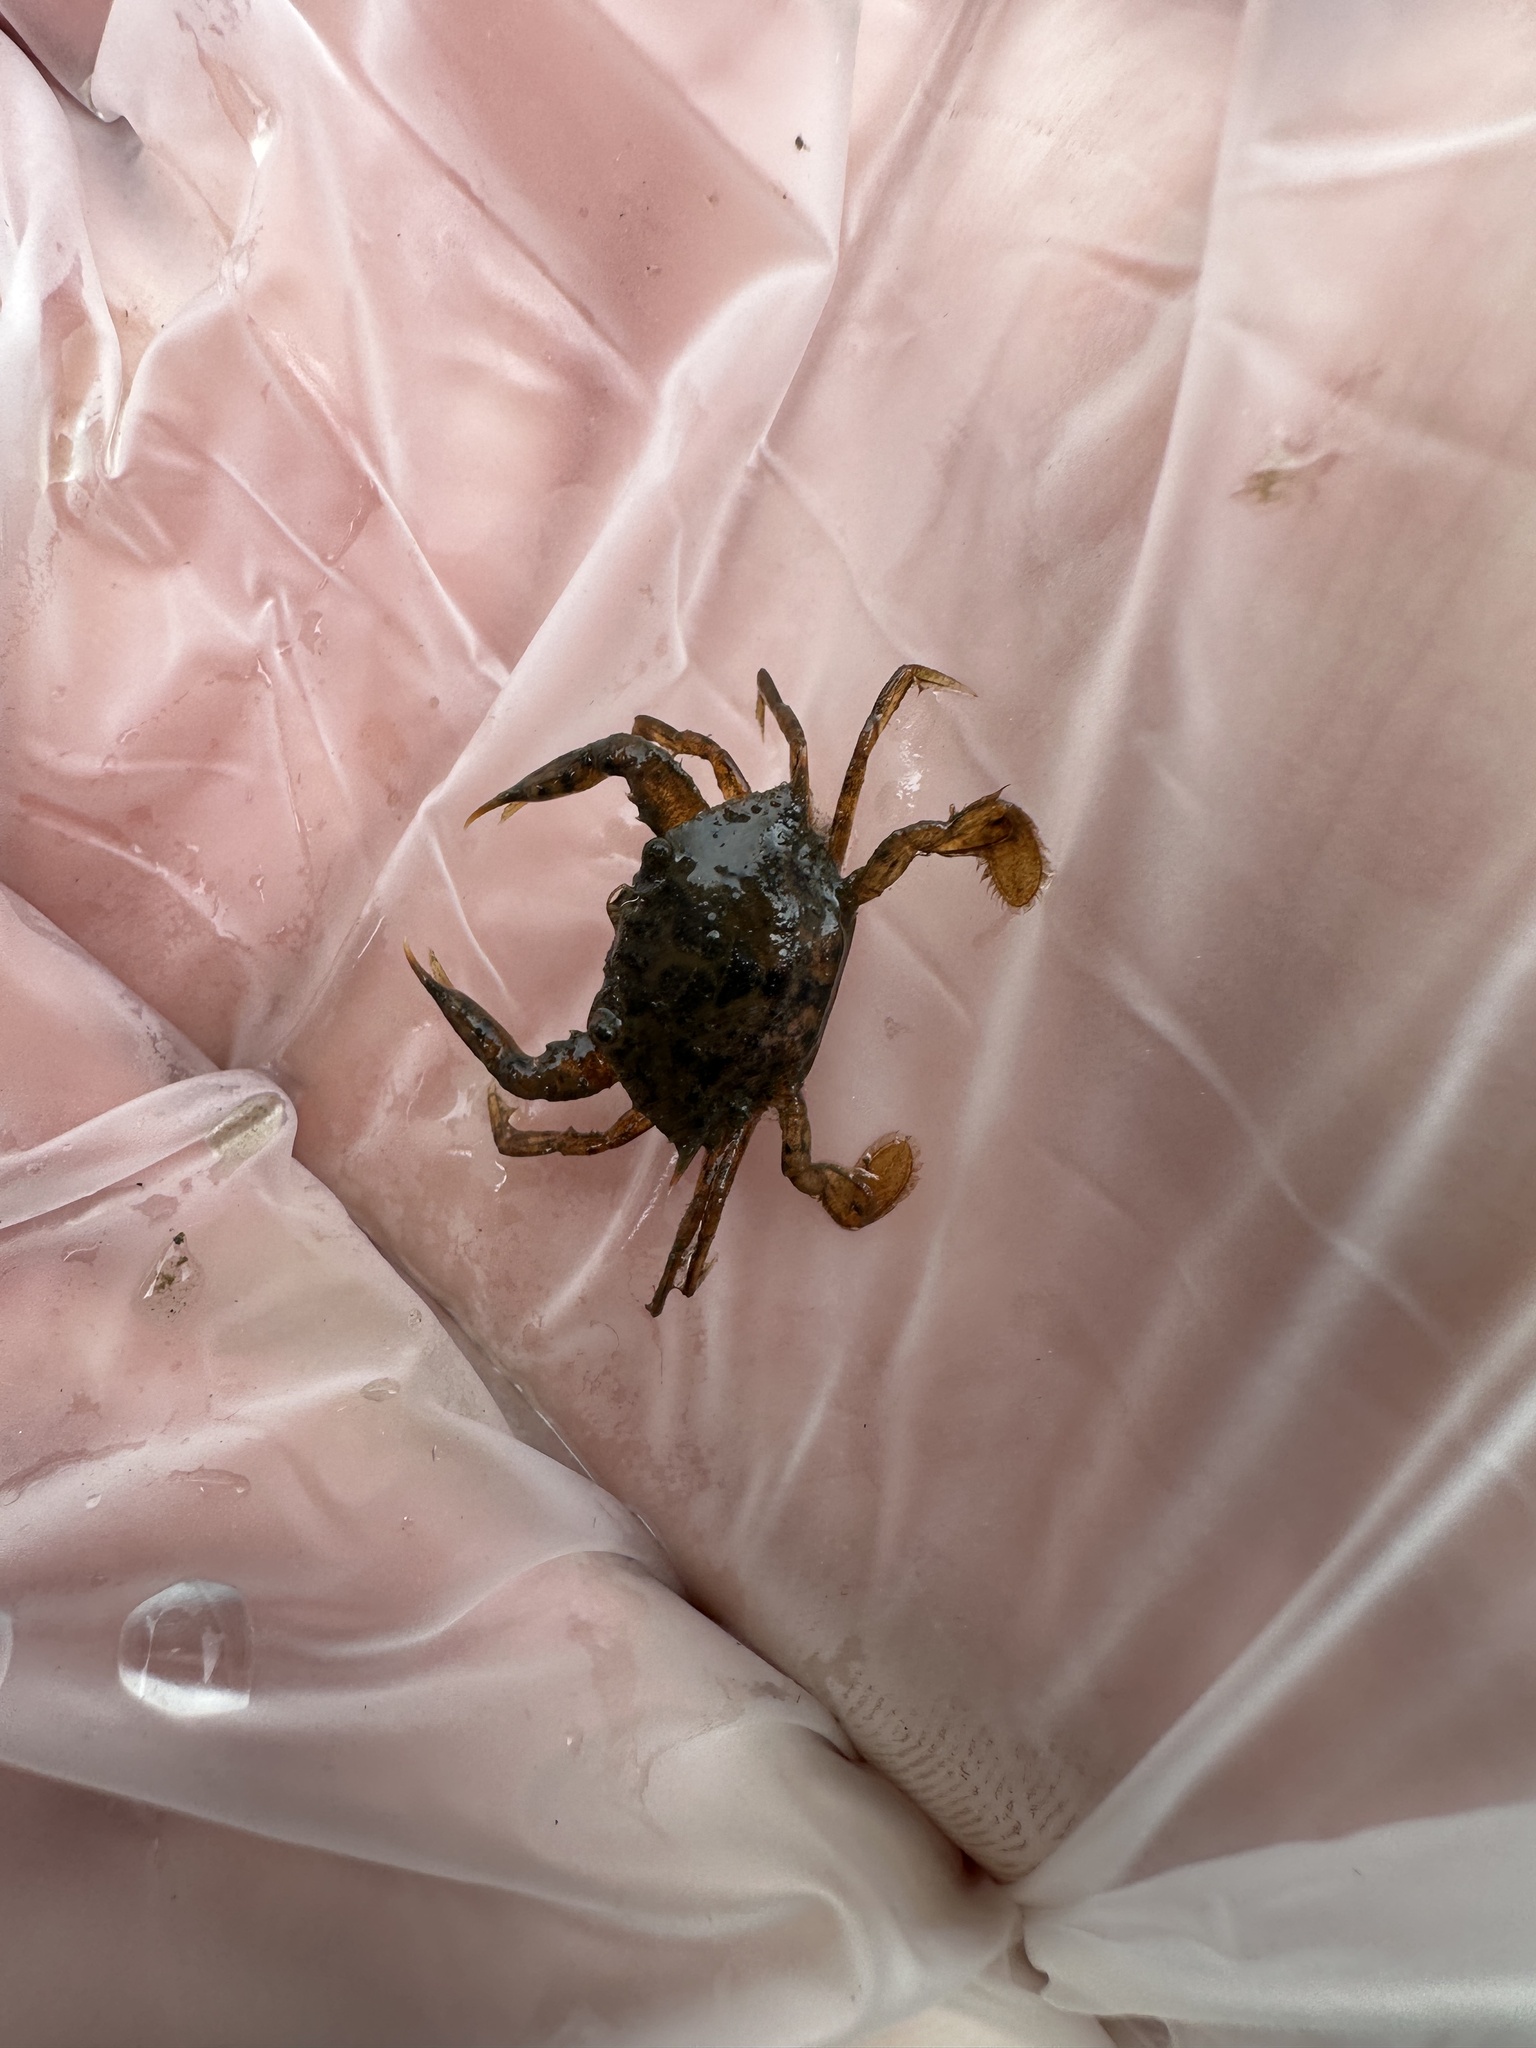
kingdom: Animalia
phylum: Arthropoda
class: Malacostraca
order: Decapoda
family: Portunidae
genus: Callinectes
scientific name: Callinectes sapidus
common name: Blue crab
